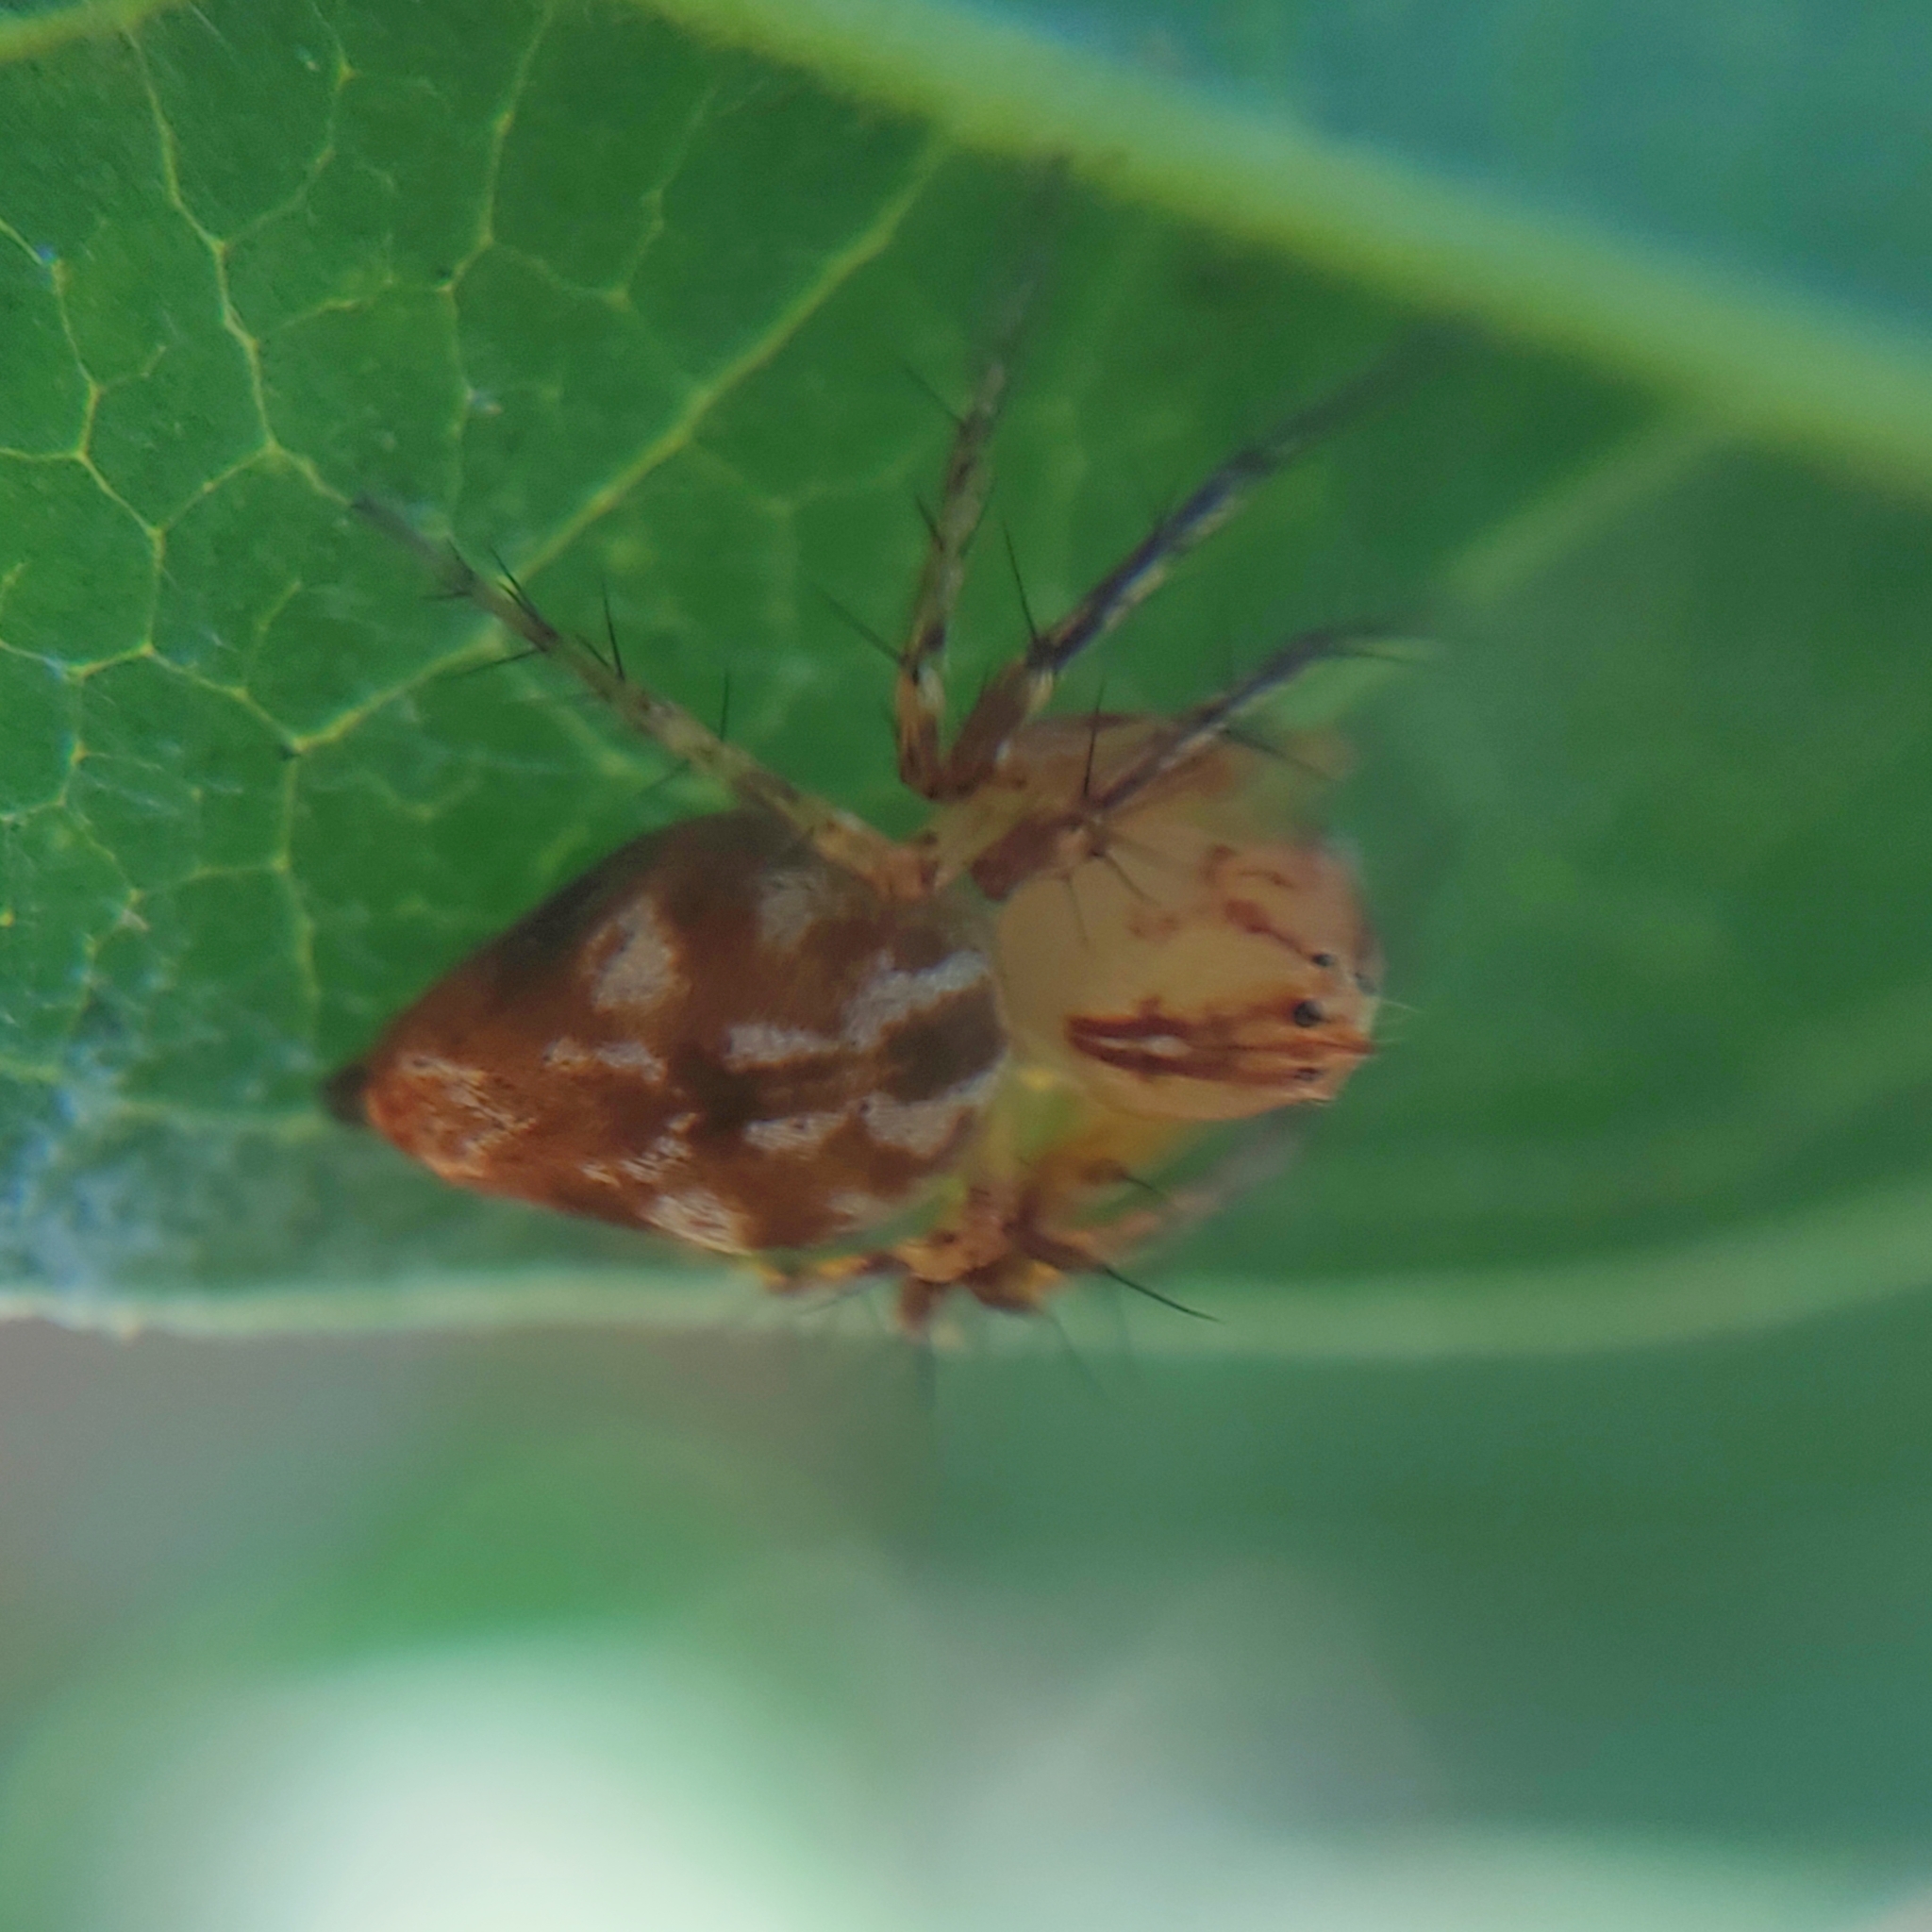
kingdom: Animalia
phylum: Arthropoda
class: Arachnida
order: Araneae
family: Oxyopidae
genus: Oxyopes
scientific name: Oxyopes incertus
